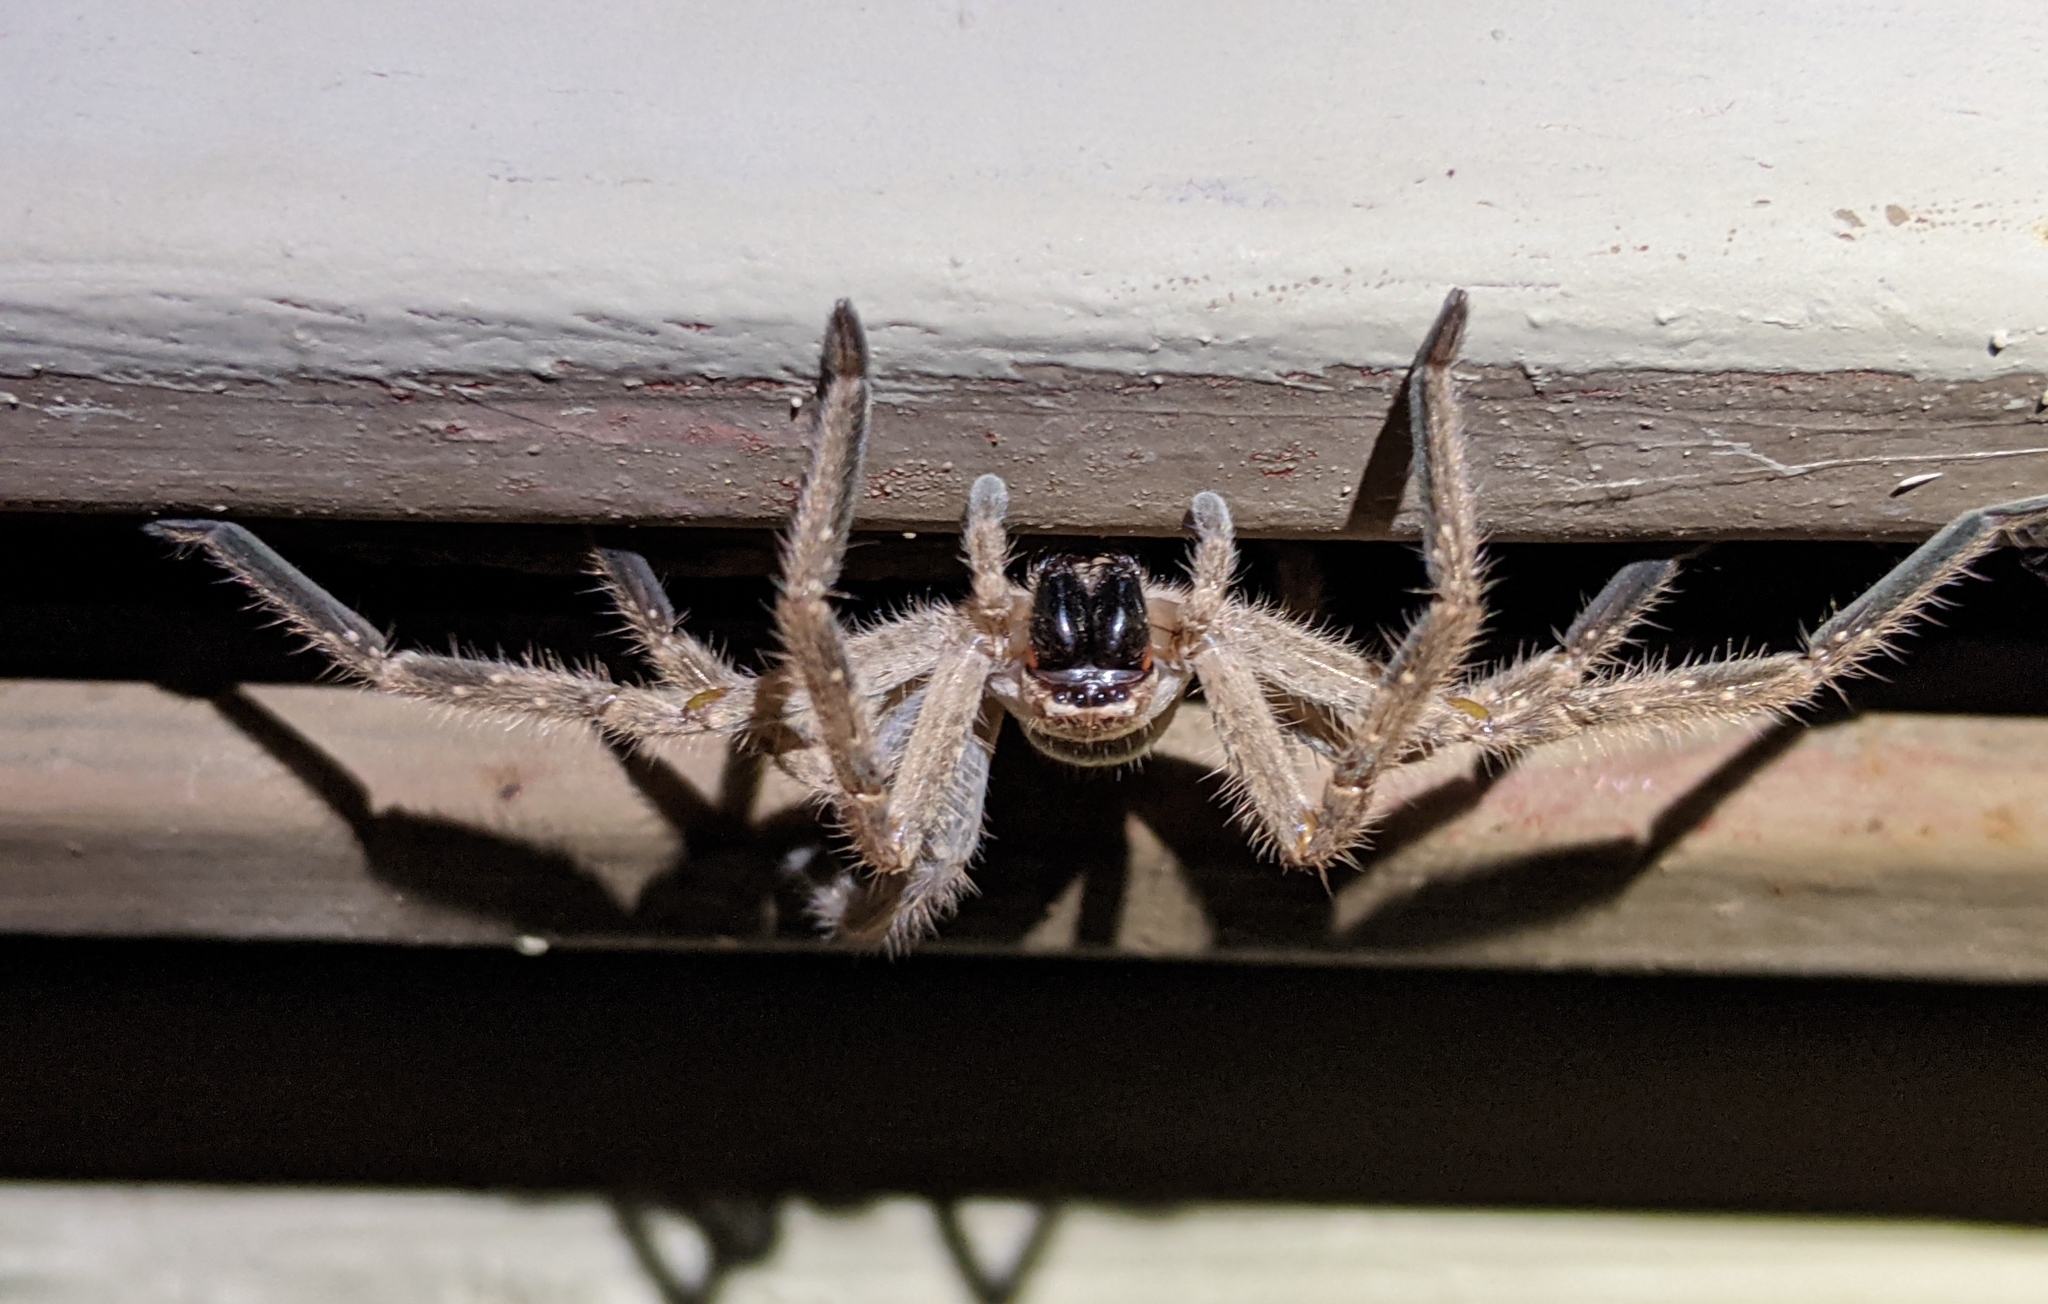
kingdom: Animalia
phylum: Arthropoda
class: Arachnida
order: Araneae
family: Sparassidae
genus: Olios
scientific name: Olios giganteus
